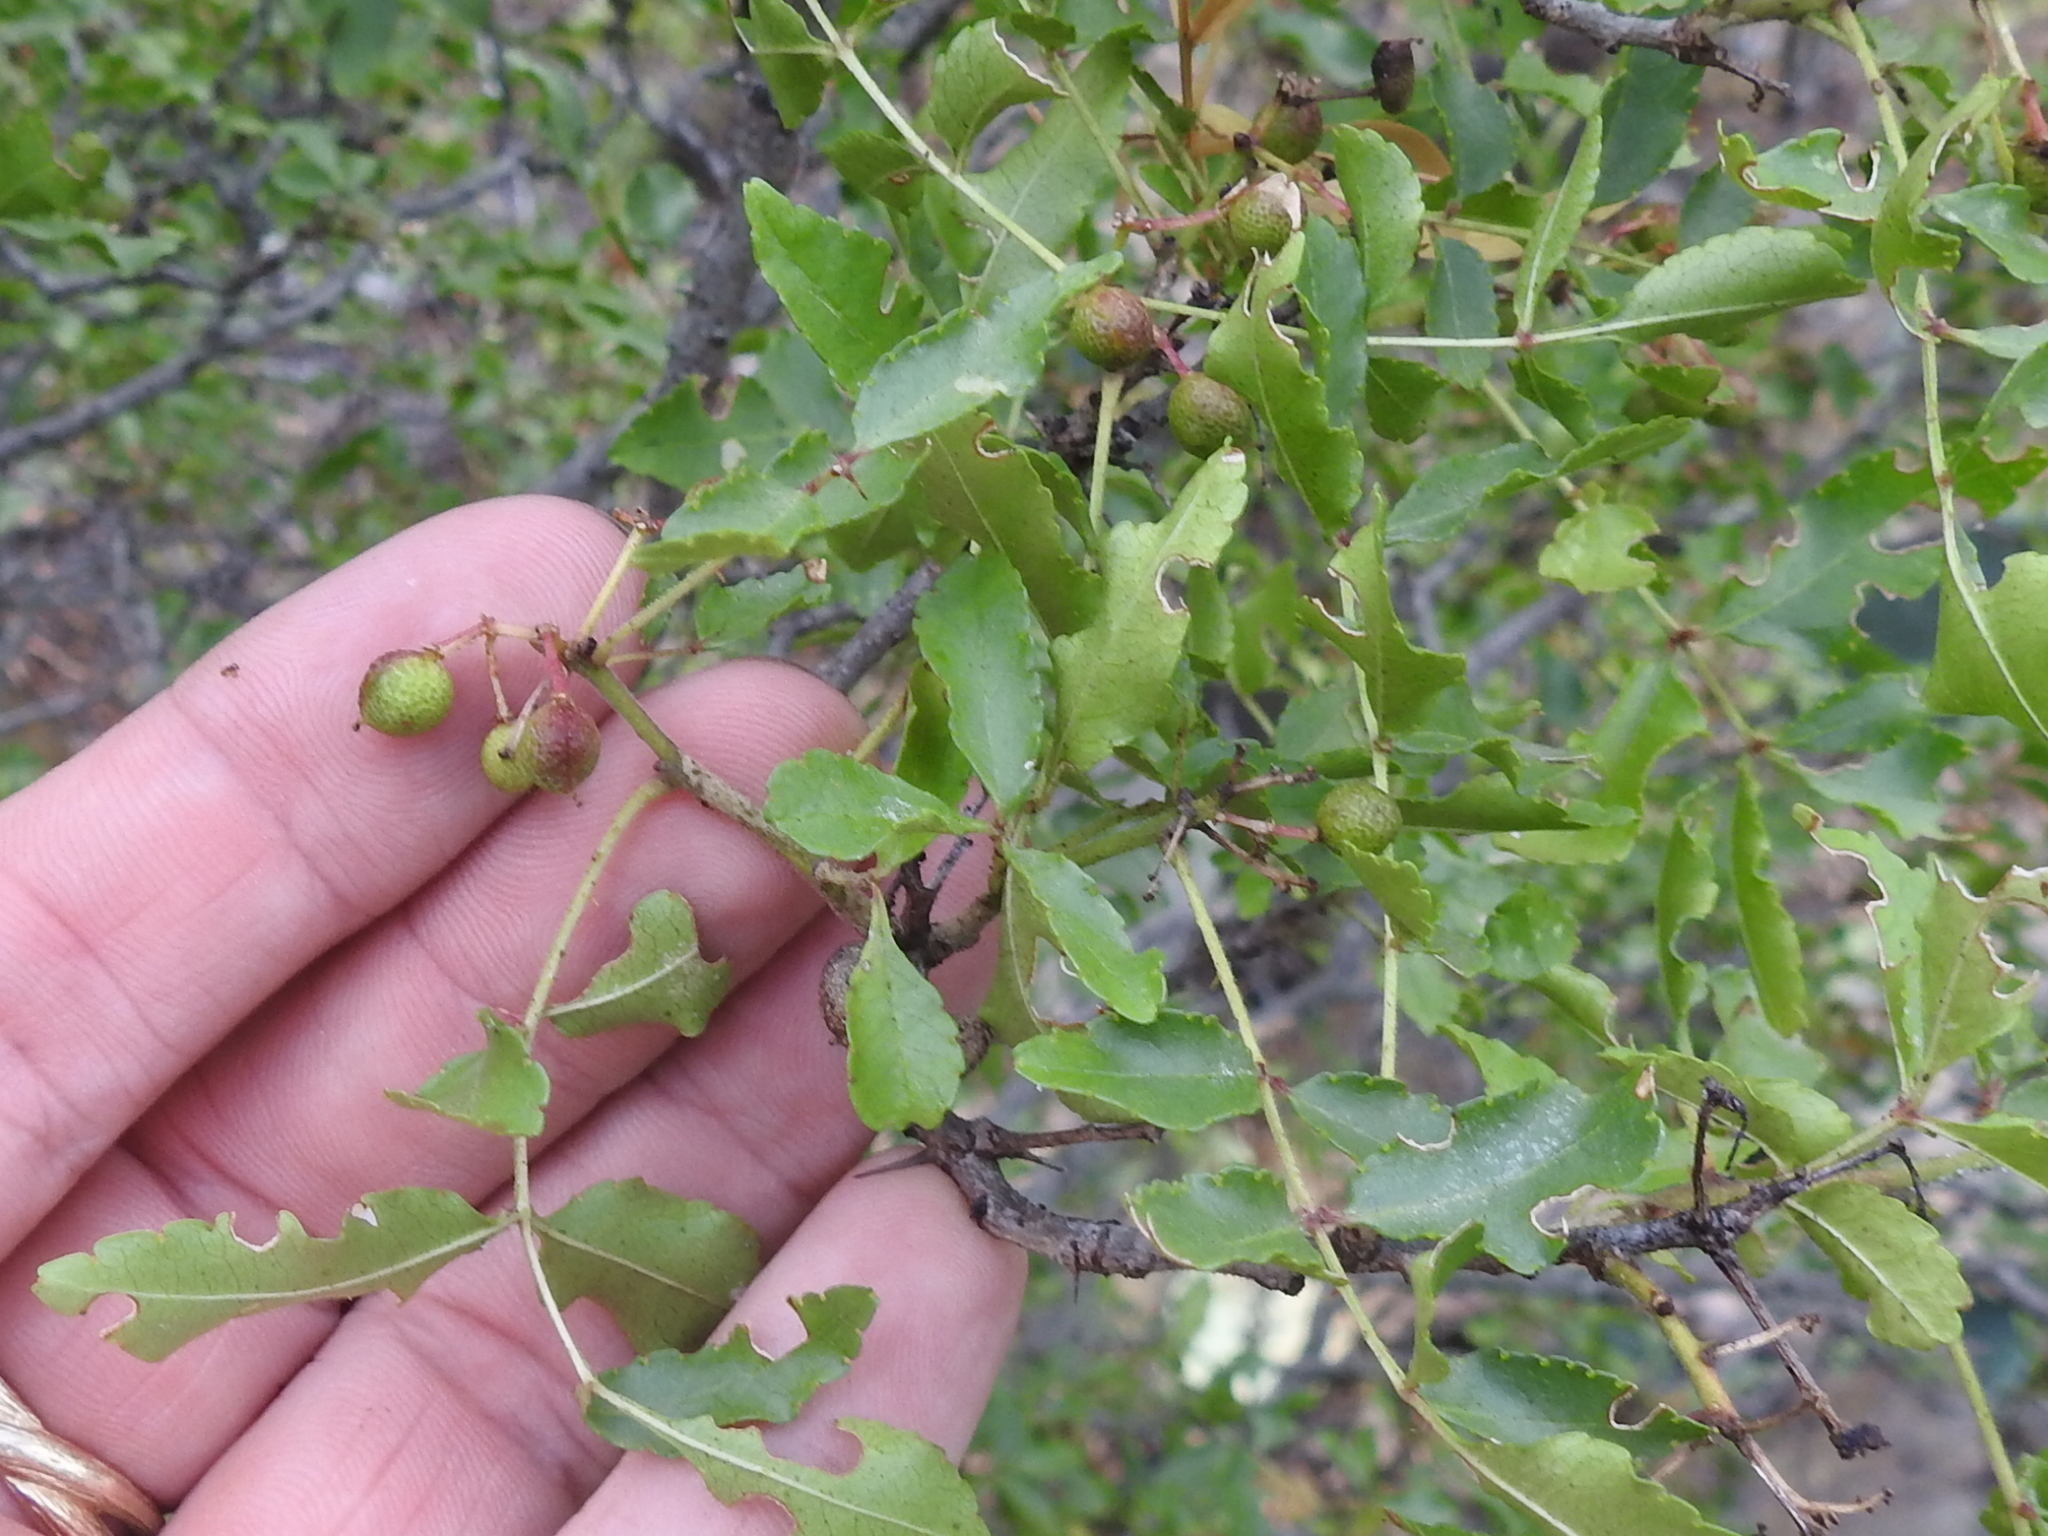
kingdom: Plantae
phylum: Tracheophyta
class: Magnoliopsida
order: Sapindales
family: Rutaceae
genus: Zanthoxylum
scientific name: Zanthoxylum clava-herculis
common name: Hercules'-club
